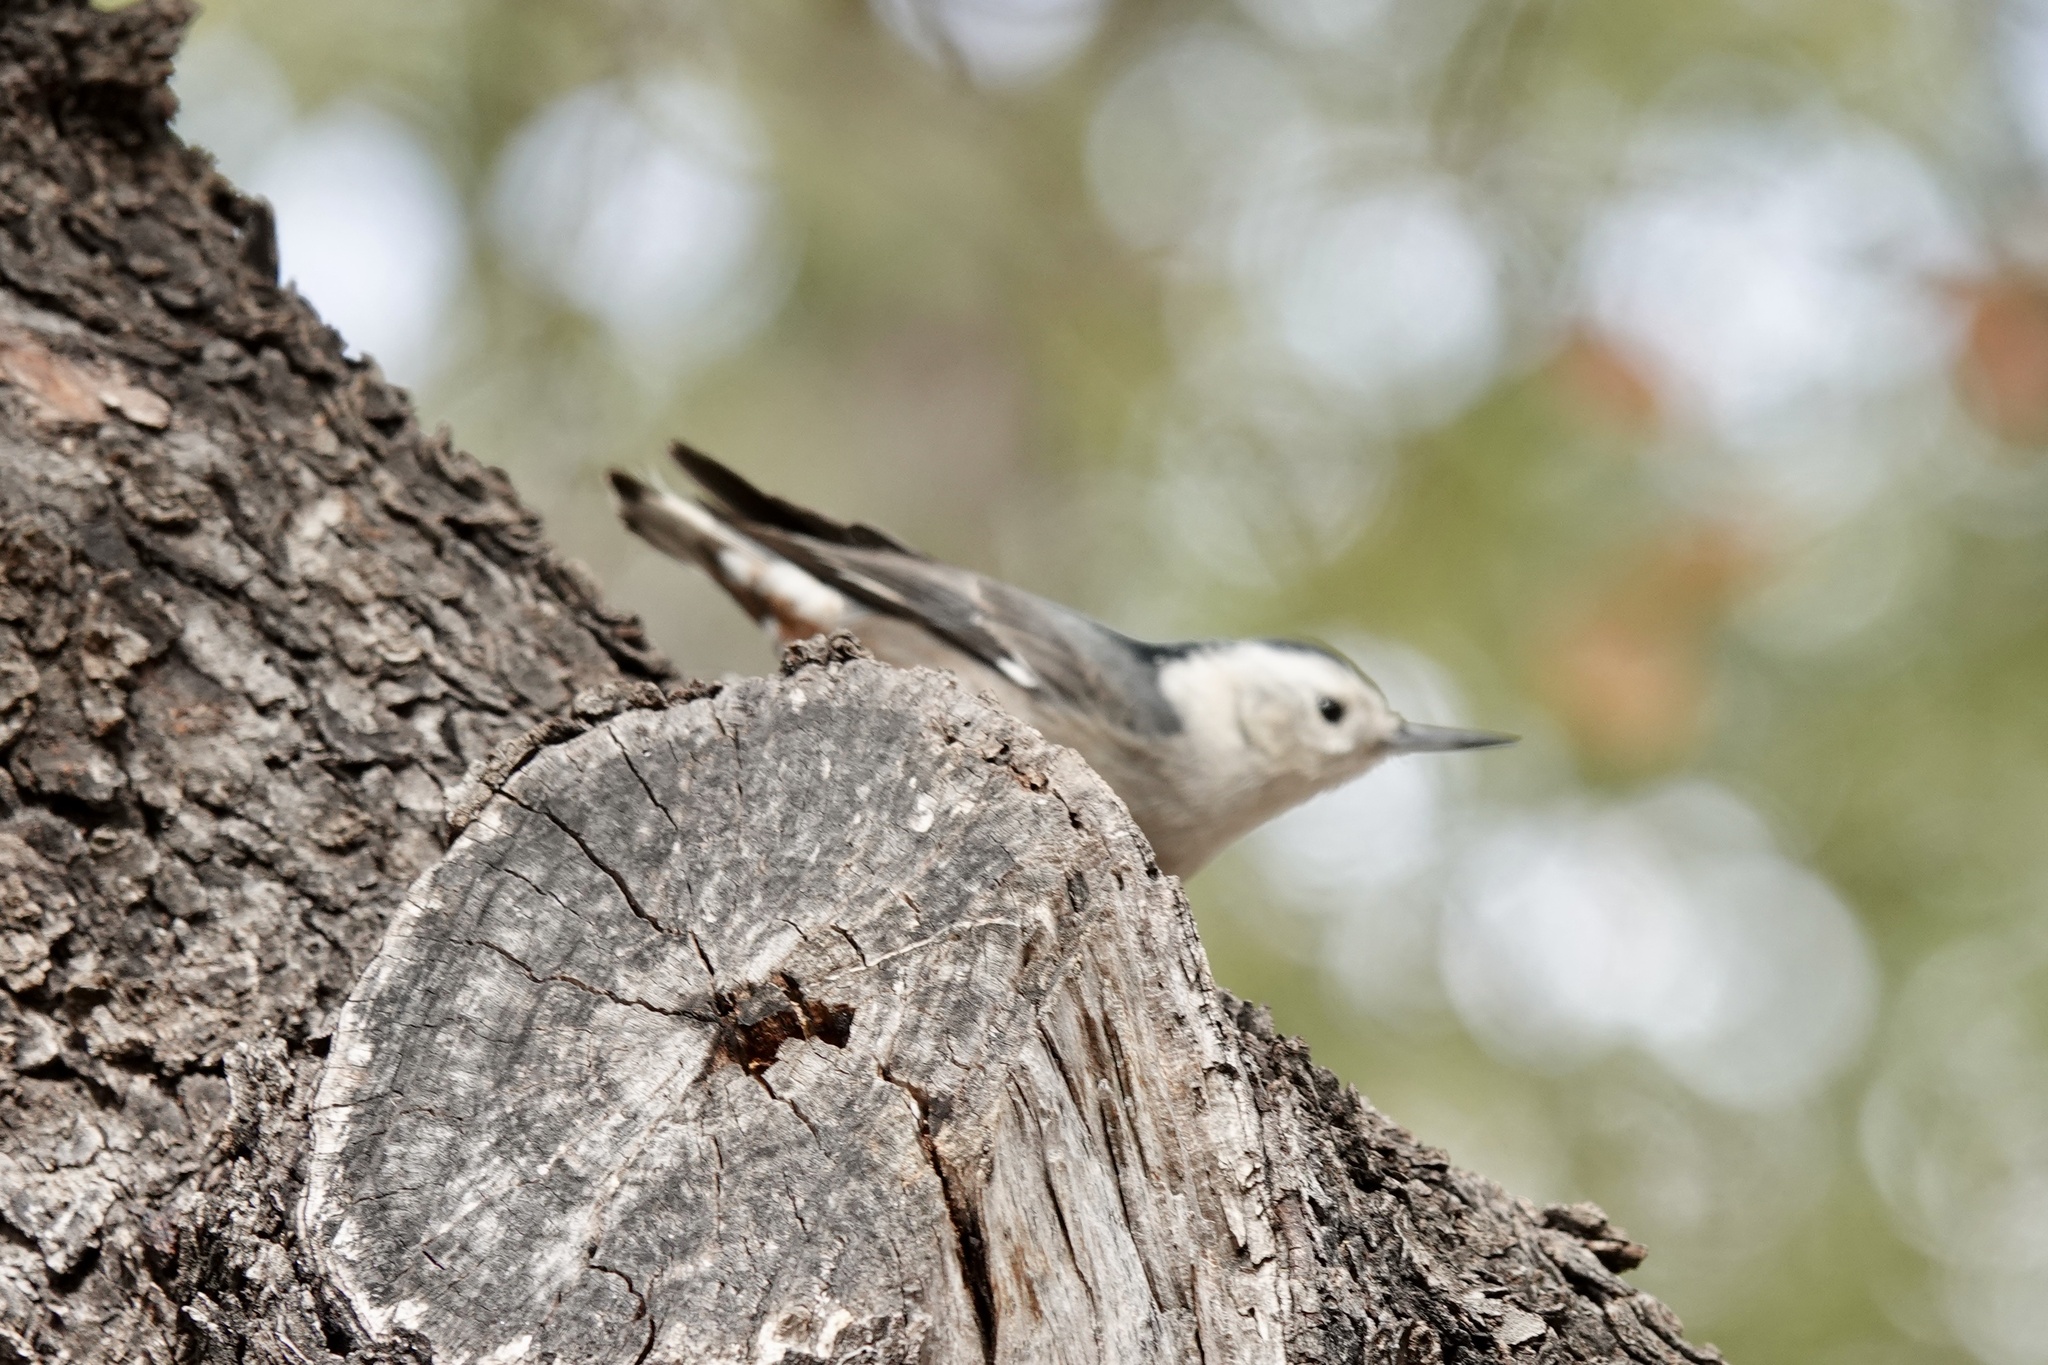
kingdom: Animalia
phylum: Chordata
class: Aves
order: Passeriformes
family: Sittidae
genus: Sitta
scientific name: Sitta carolinensis
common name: White-breasted nuthatch
